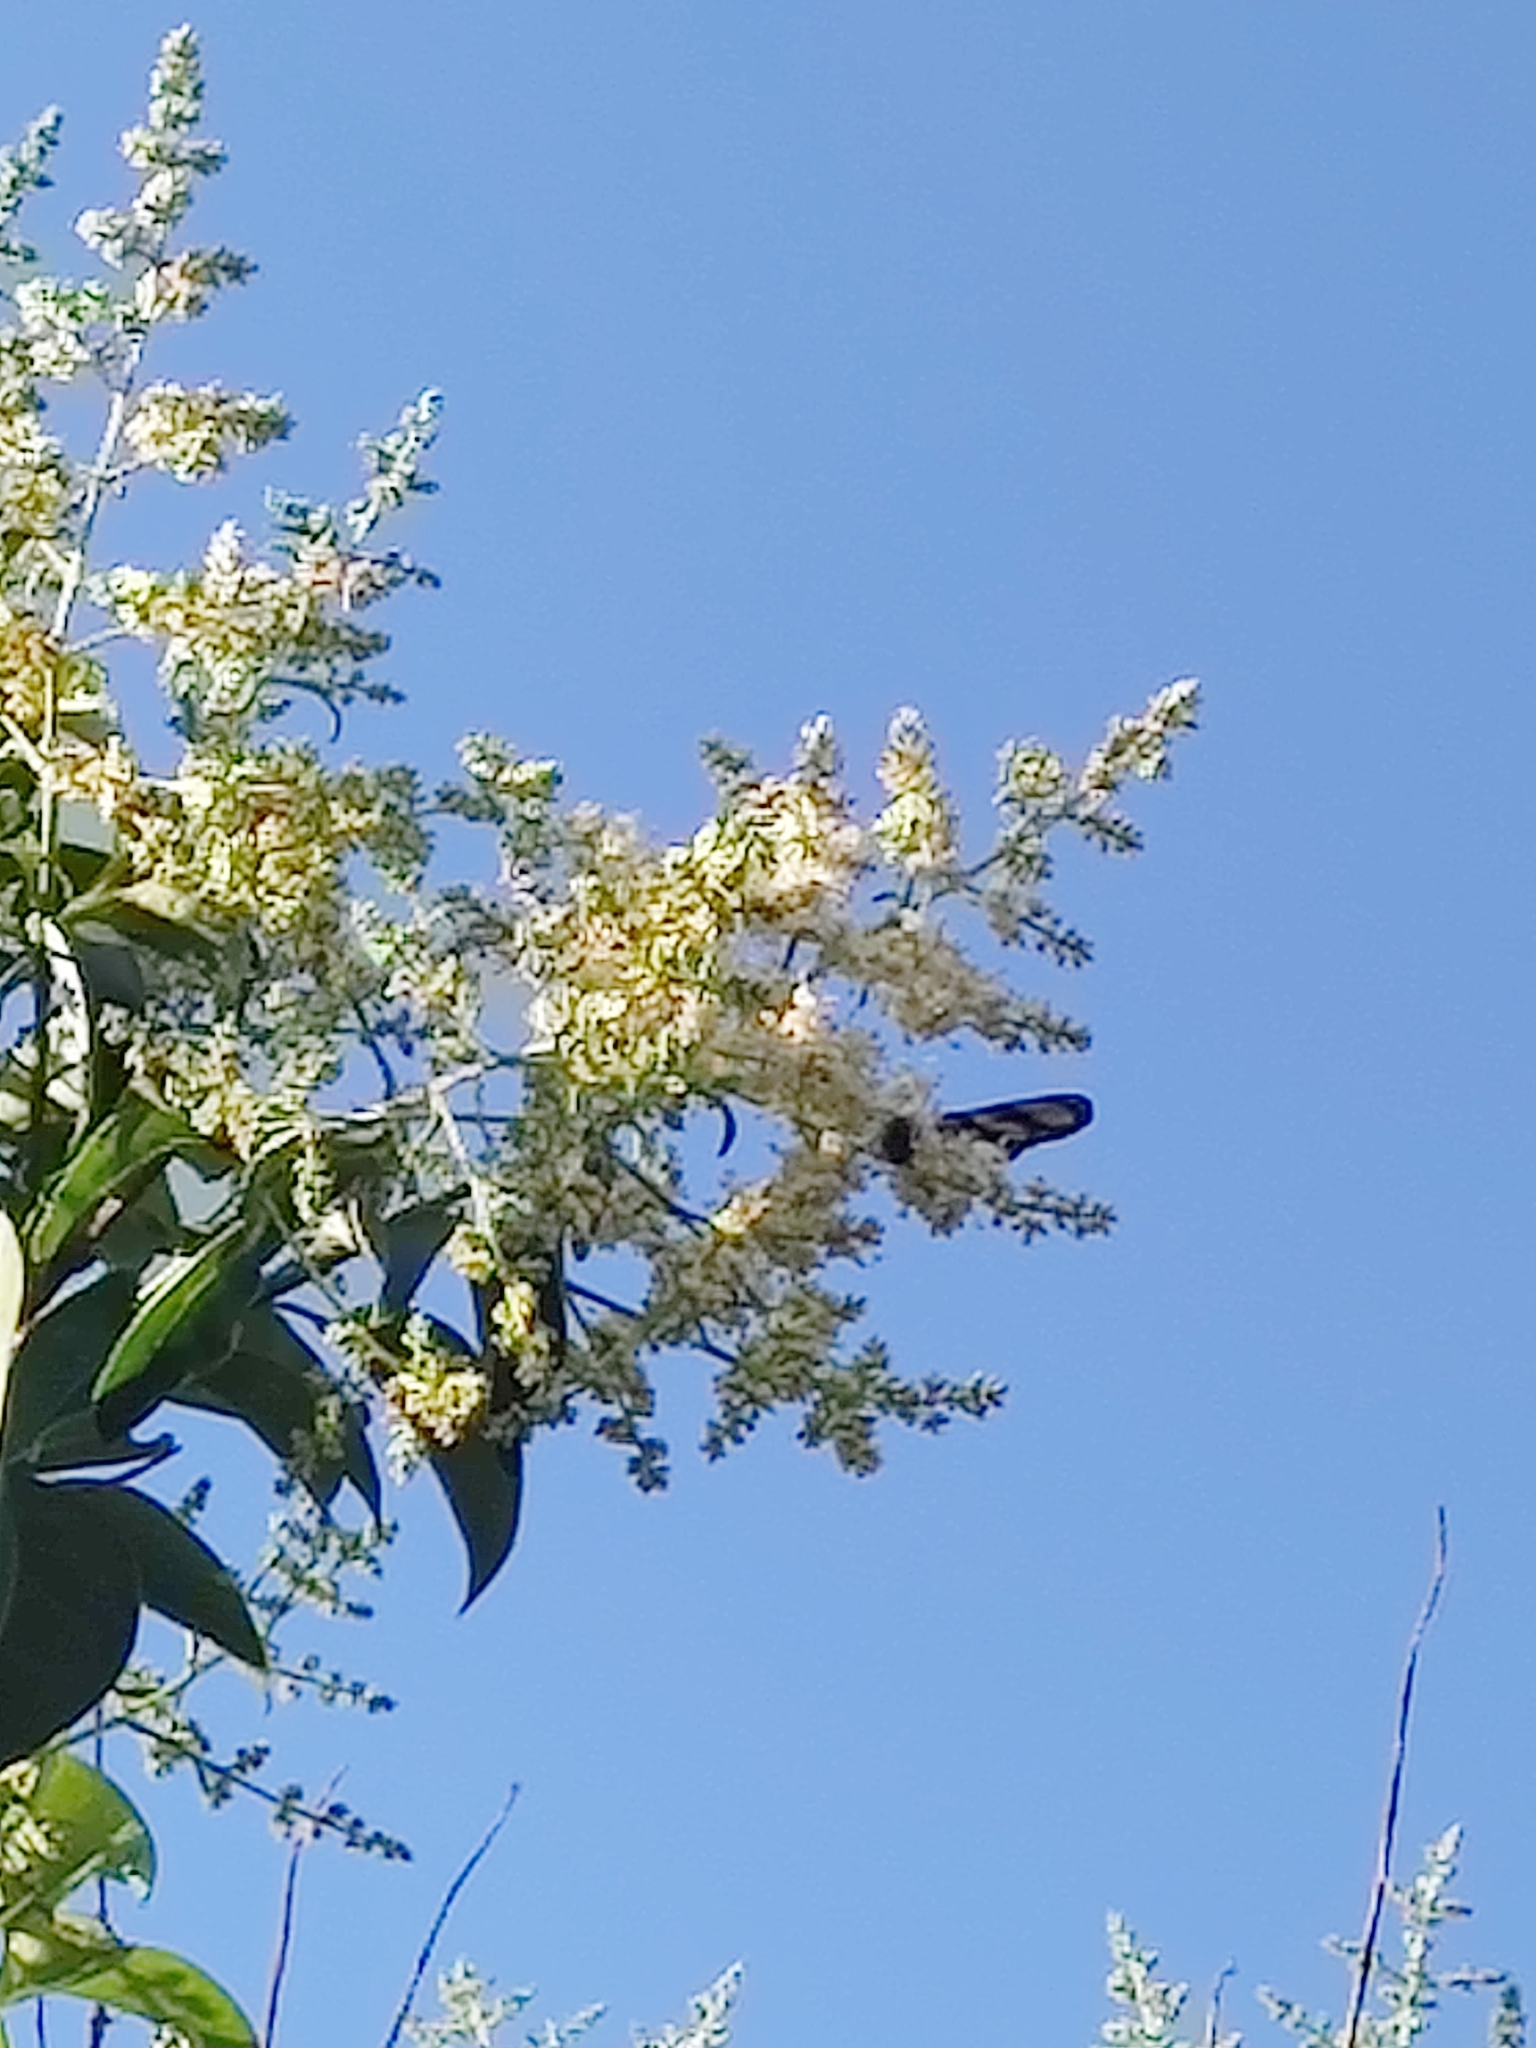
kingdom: Animalia
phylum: Arthropoda
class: Insecta
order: Lepidoptera
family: Nymphalidae
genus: Methona
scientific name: Methona themisto
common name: Themisto amberwing
